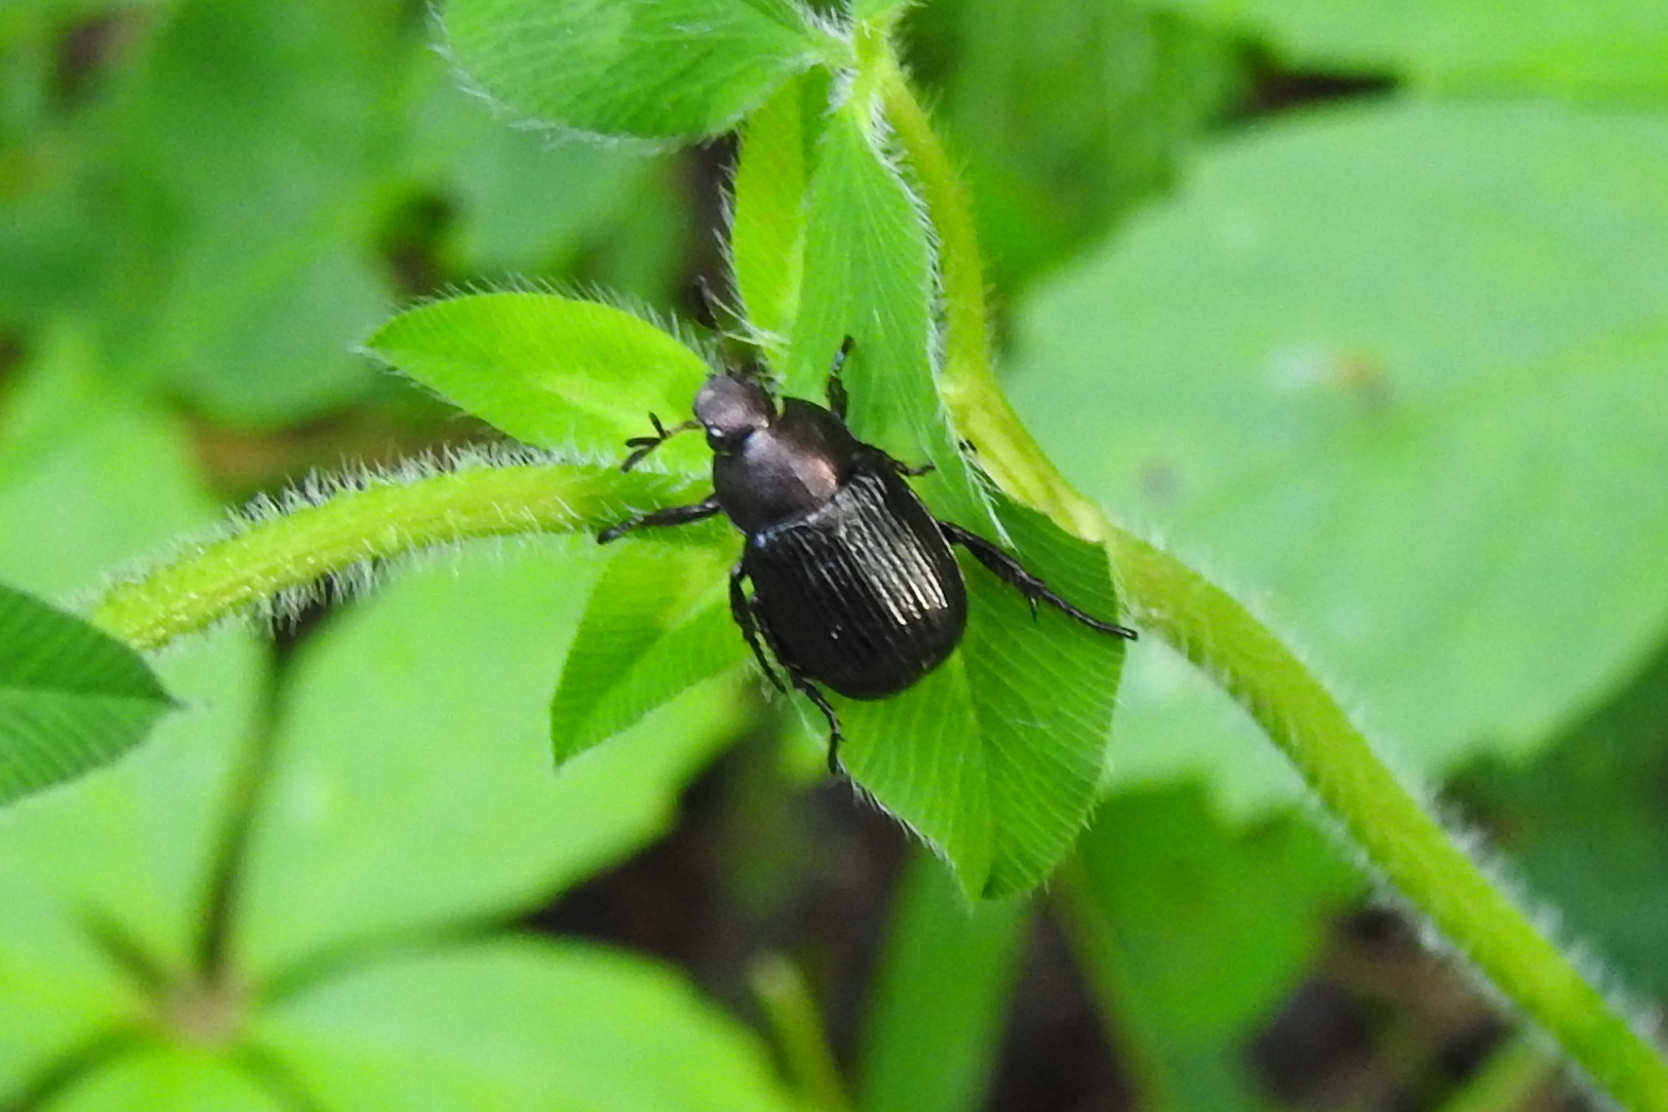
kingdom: Animalia
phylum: Arthropoda
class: Insecta
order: Coleoptera
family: Scarabaeidae
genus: Exomala
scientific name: Exomala orientalis
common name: Oriental beetle
